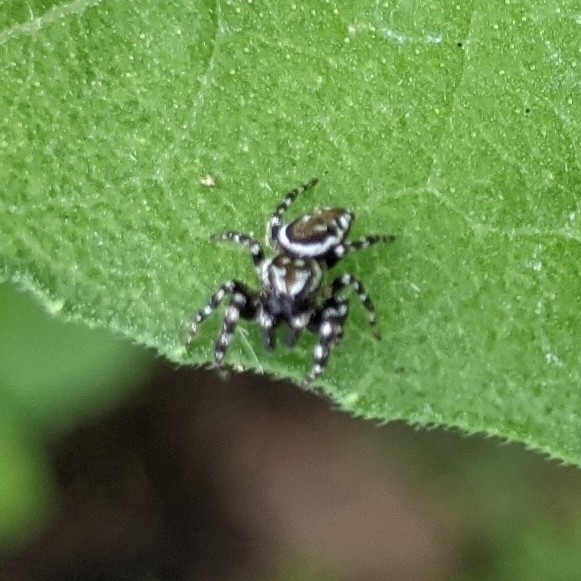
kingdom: Animalia
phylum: Arthropoda
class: Arachnida
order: Araneae
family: Salticidae
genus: Pelegrina
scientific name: Pelegrina galathea
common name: Jumping spiders
